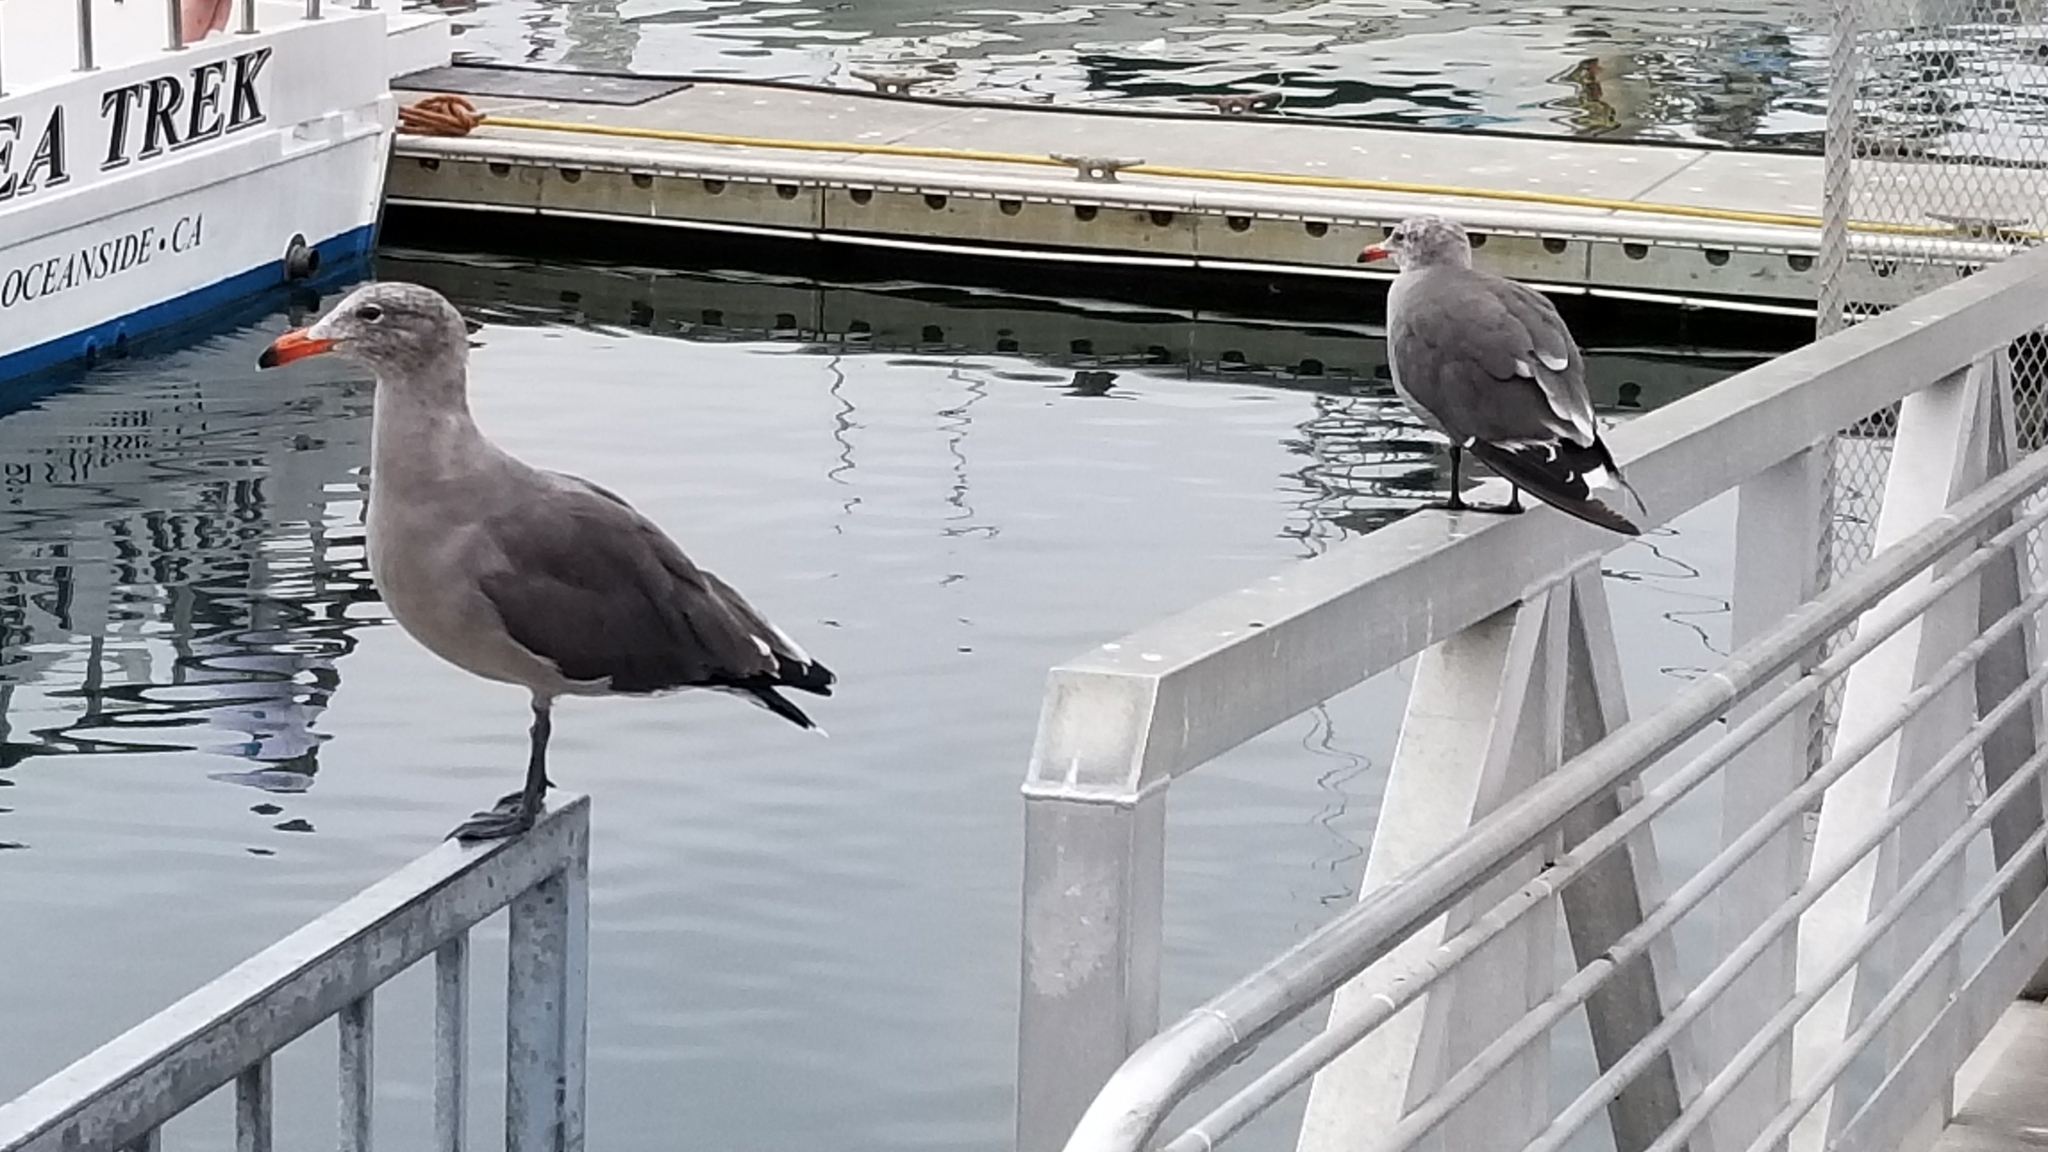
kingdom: Animalia
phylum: Chordata
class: Aves
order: Charadriiformes
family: Laridae
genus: Larus
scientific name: Larus heermanni
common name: Heermann's gull
